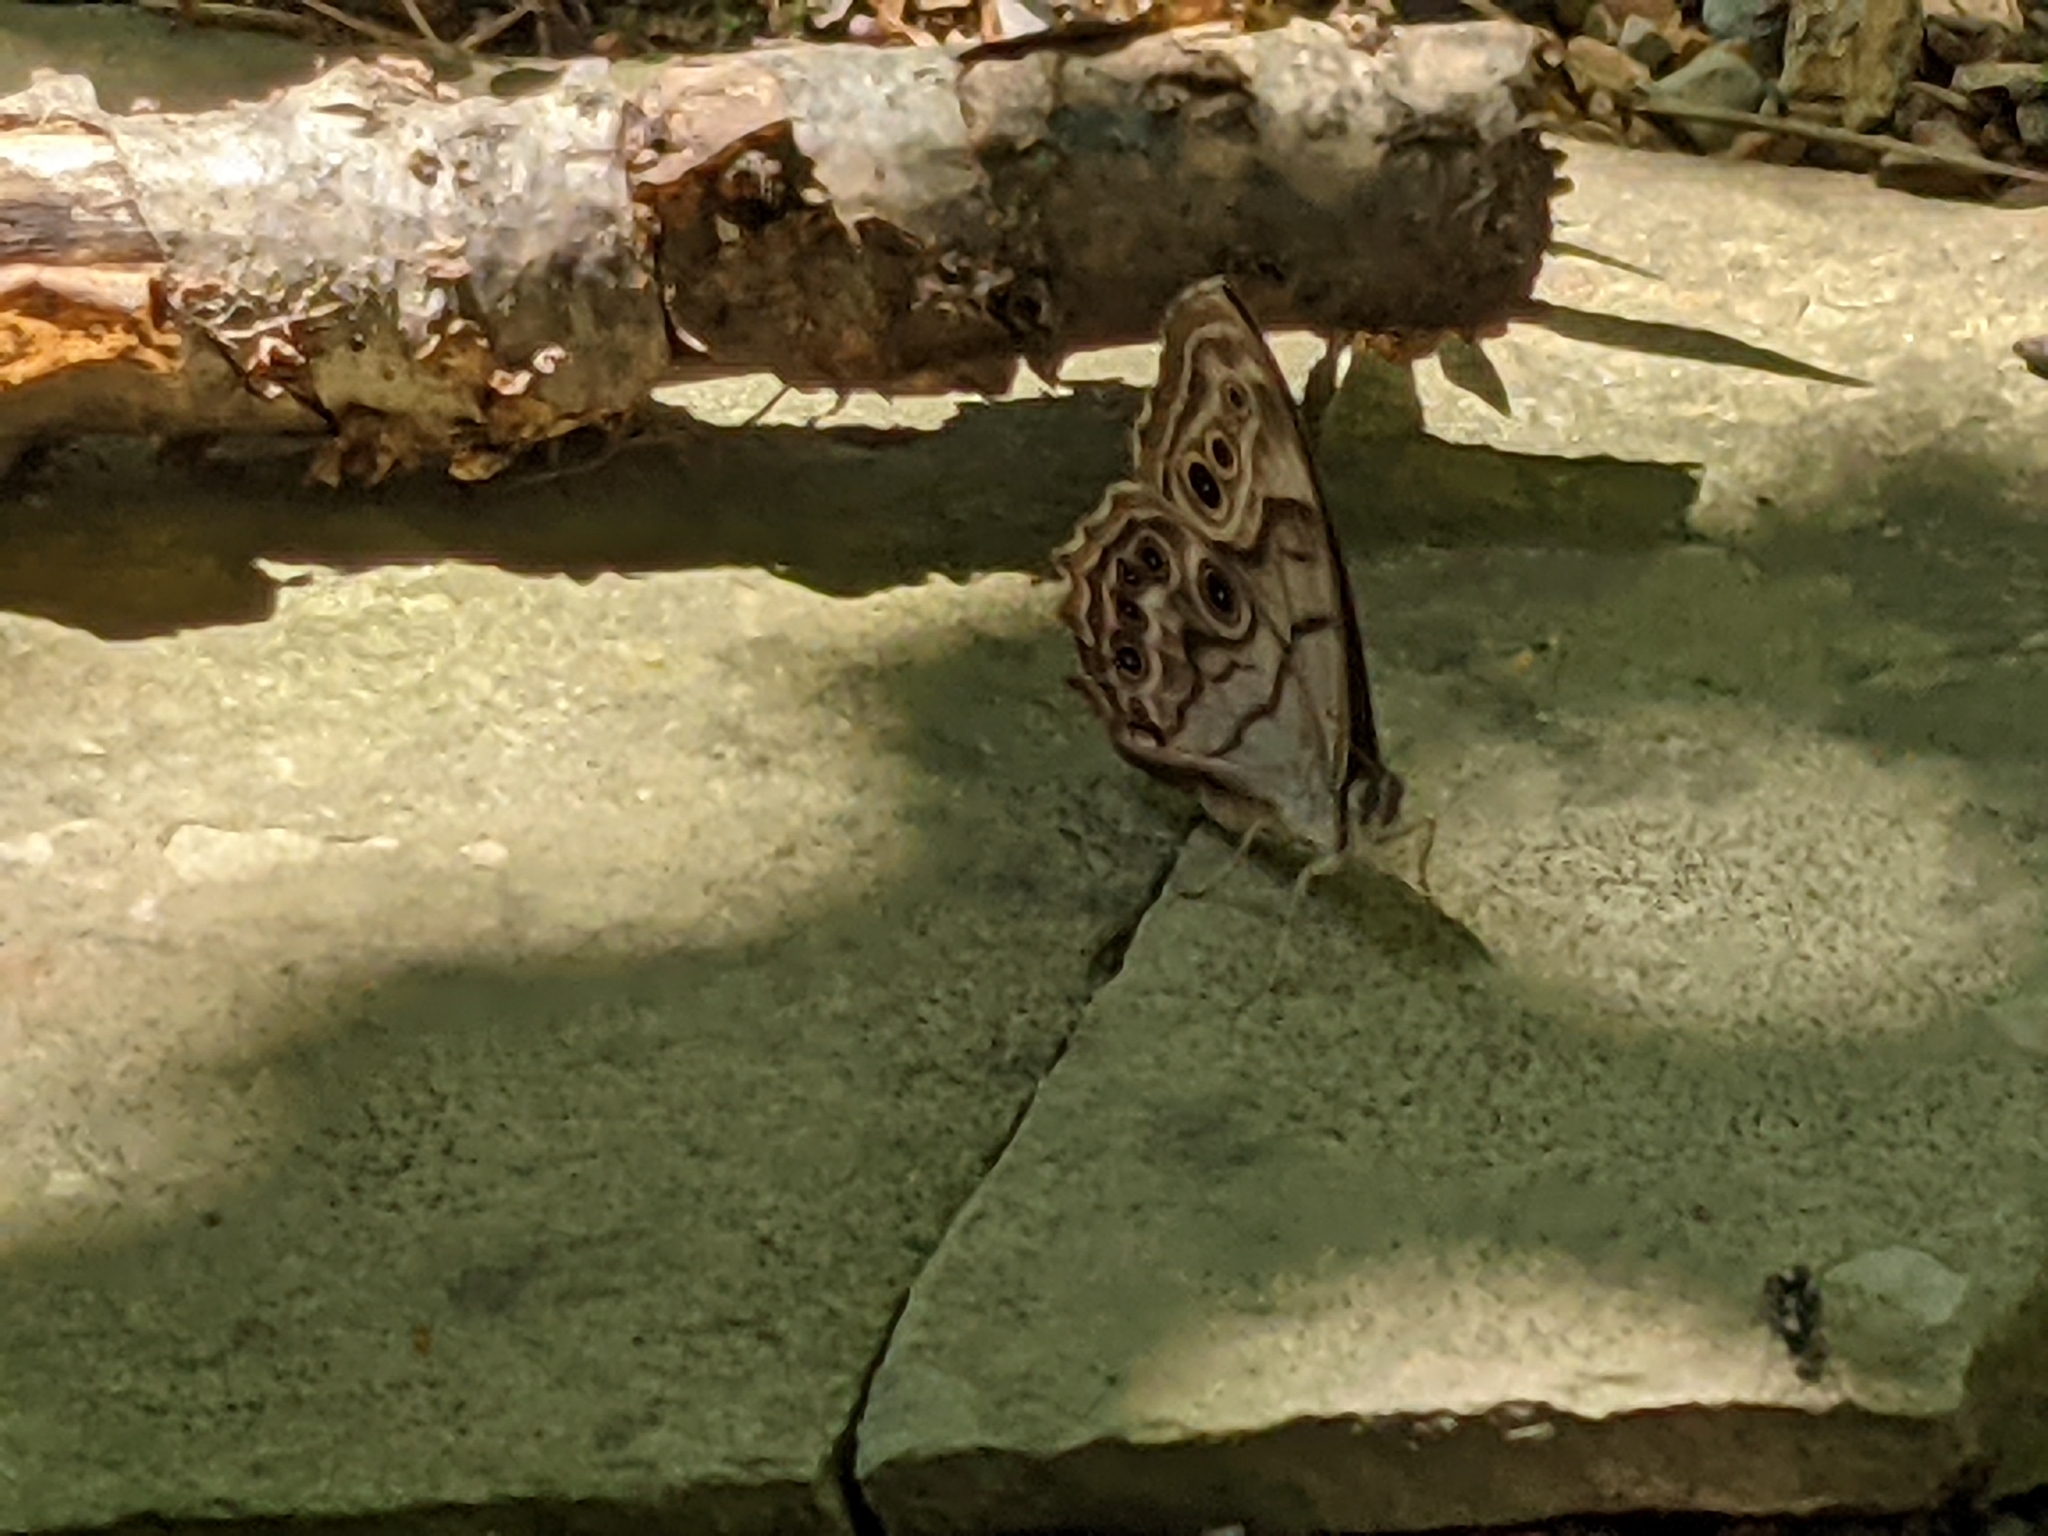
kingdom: Animalia
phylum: Arthropoda
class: Insecta
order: Lepidoptera
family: Nymphalidae
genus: Lethe
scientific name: Lethe anthedon
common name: Northern pearly-eye
